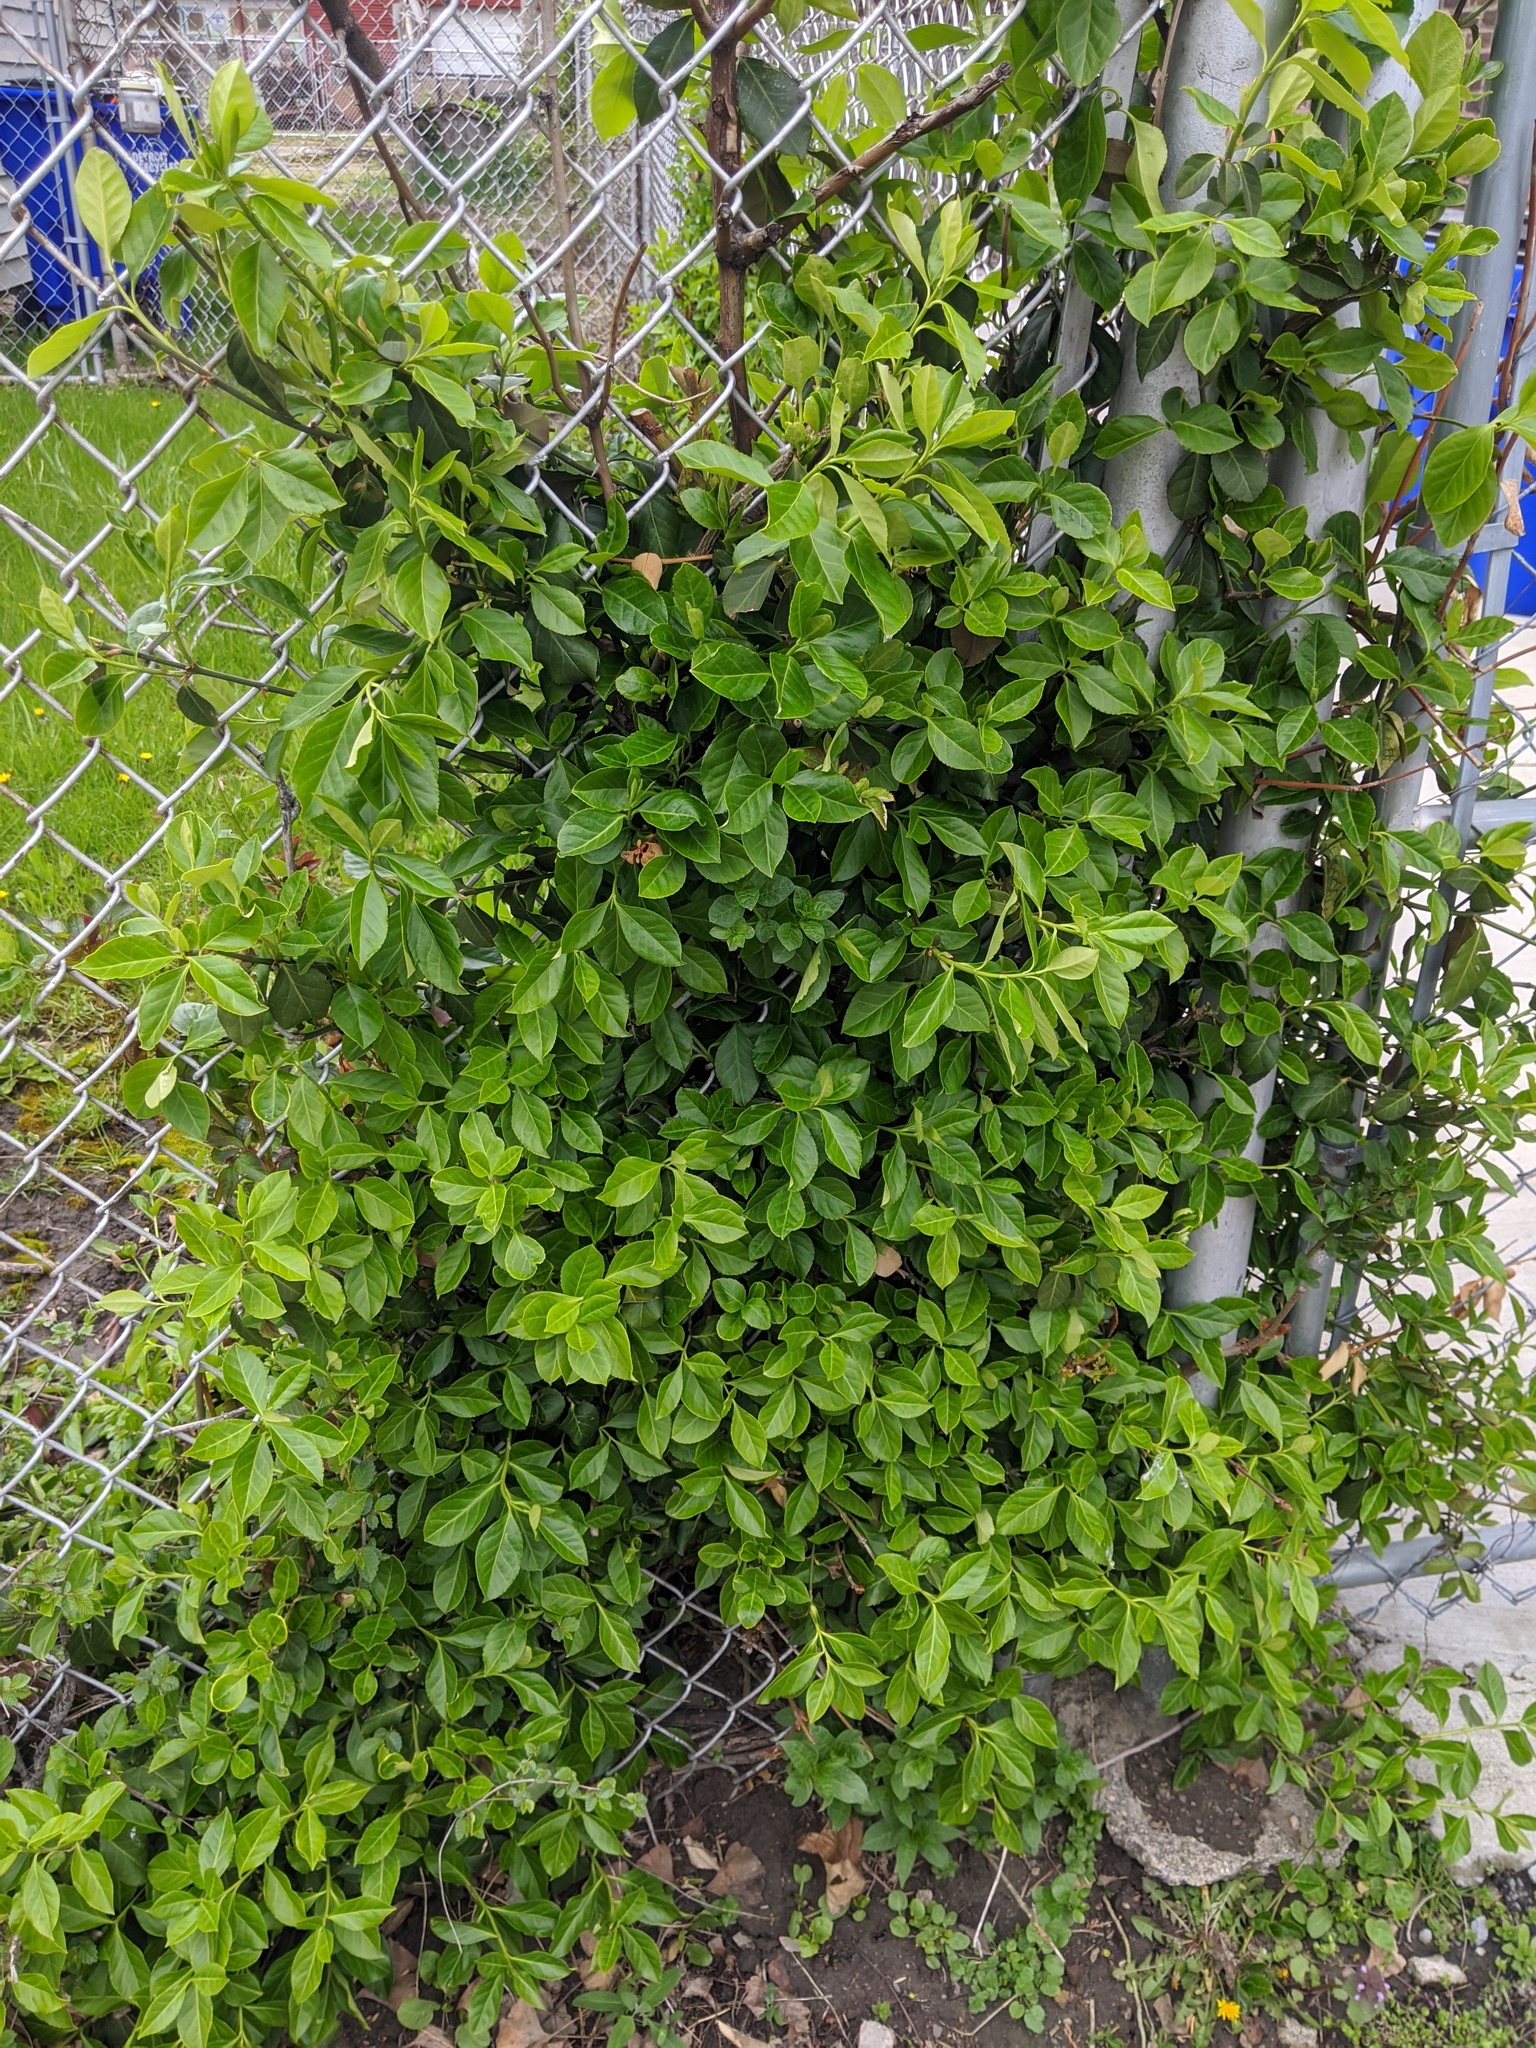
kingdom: Plantae
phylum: Tracheophyta
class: Magnoliopsida
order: Celastrales
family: Celastraceae
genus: Euonymus
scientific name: Euonymus fortunei
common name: Climbing euonymus
